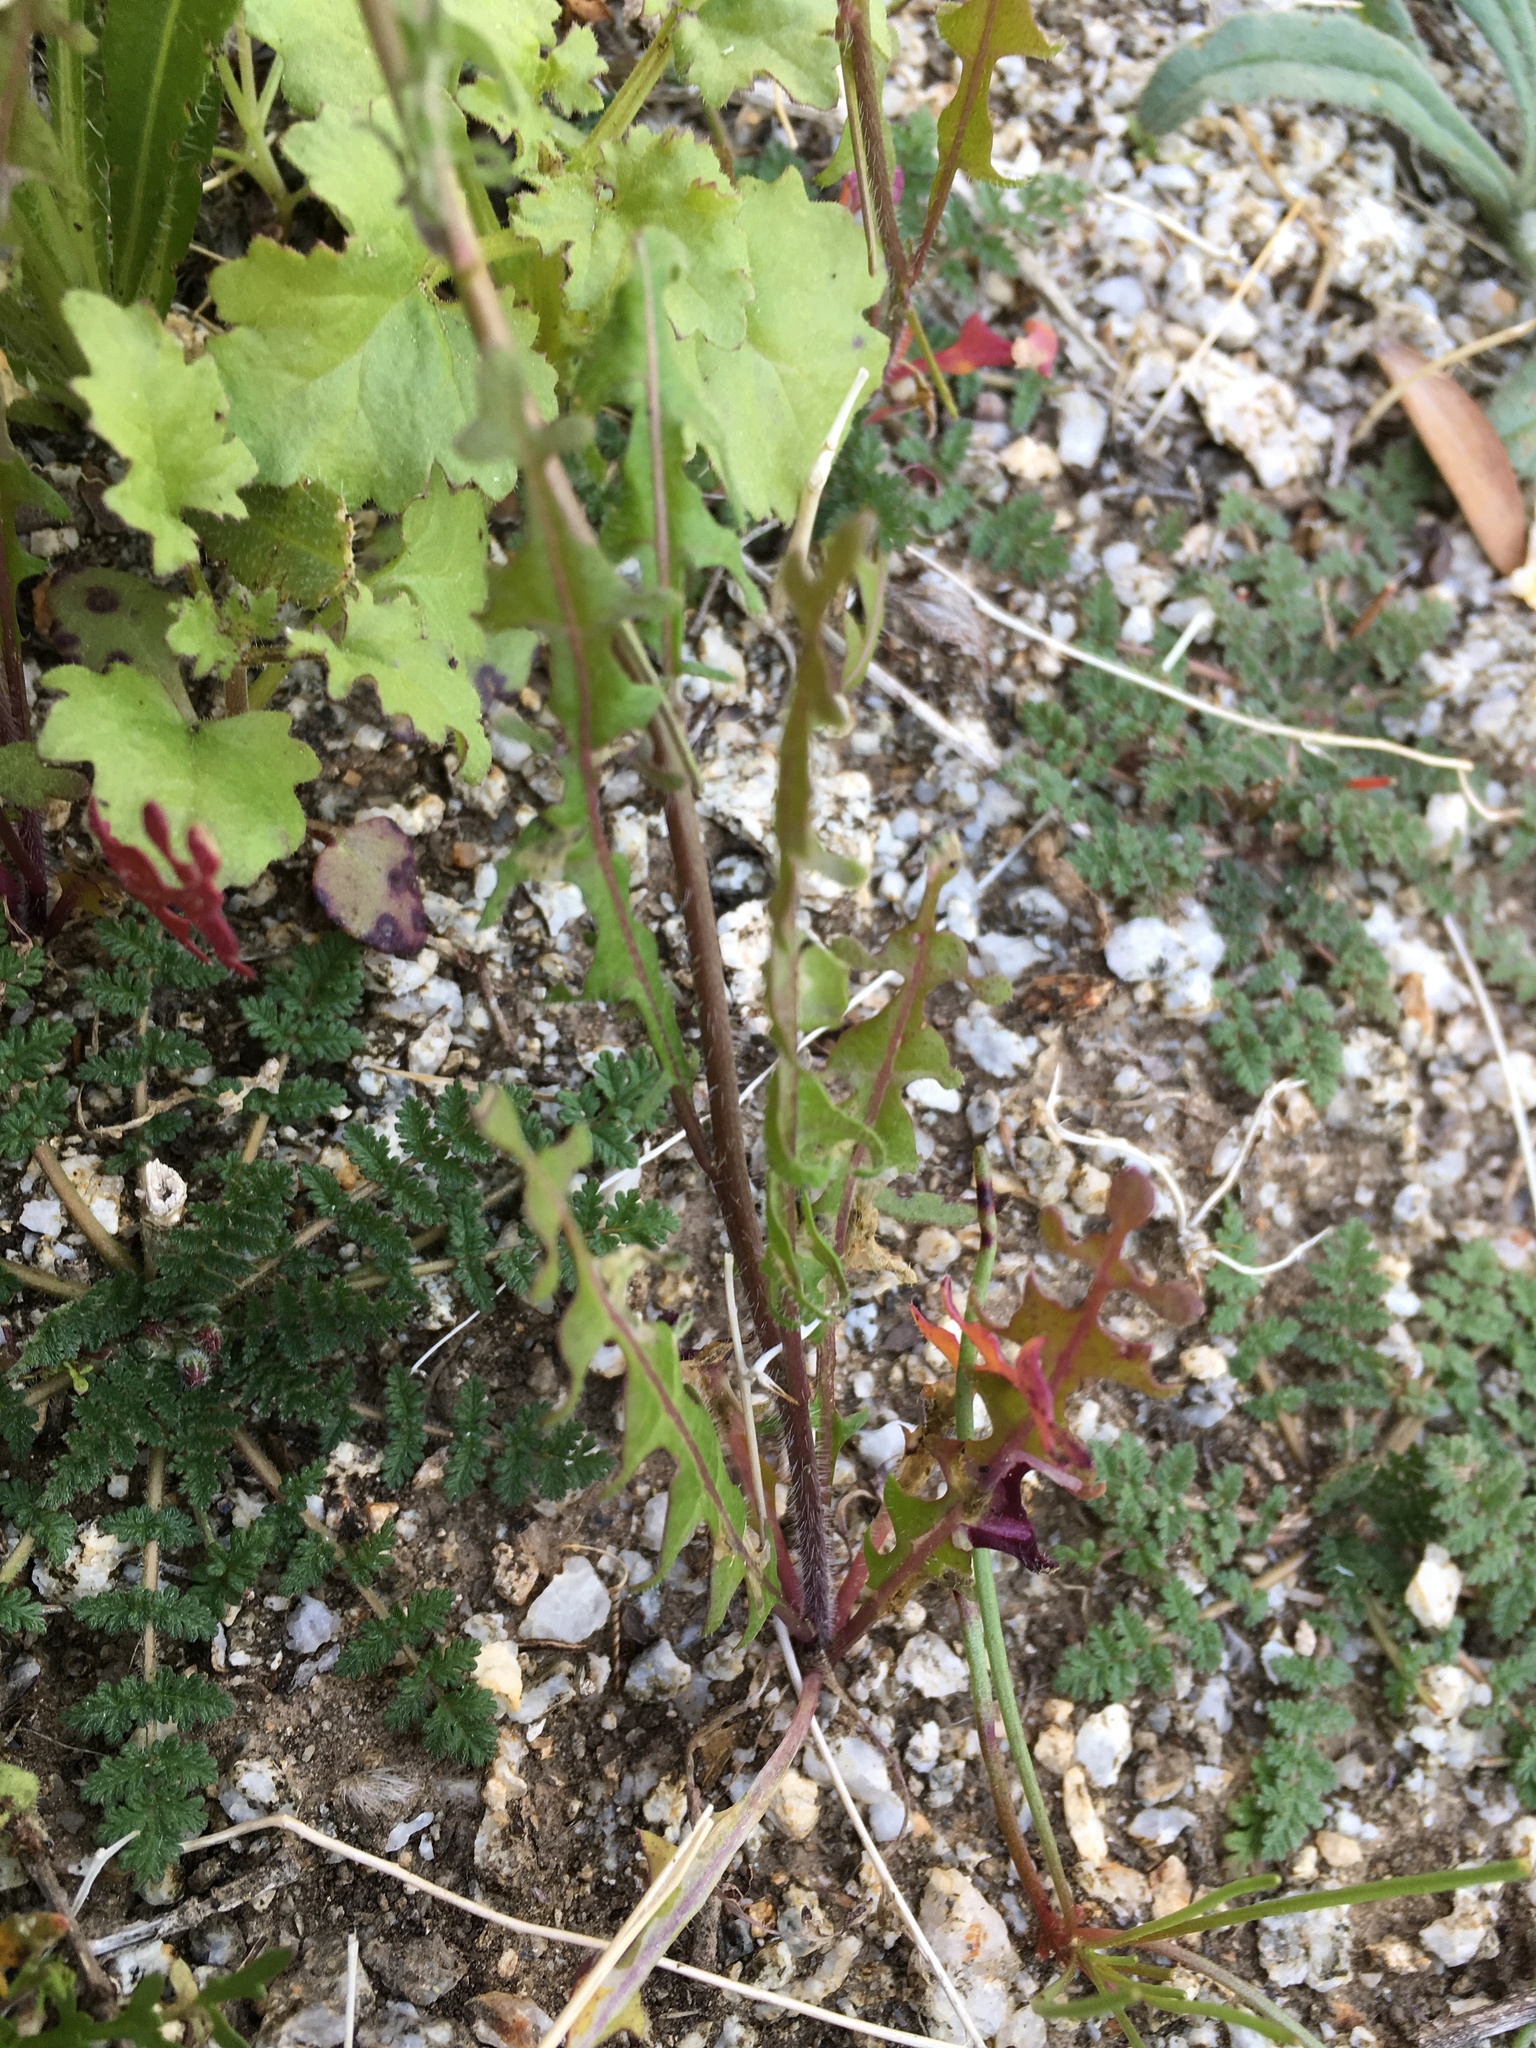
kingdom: Plantae
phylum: Tracheophyta
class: Magnoliopsida
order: Brassicales
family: Brassicaceae
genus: Streptanthus
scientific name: Streptanthus lasiophyllus
